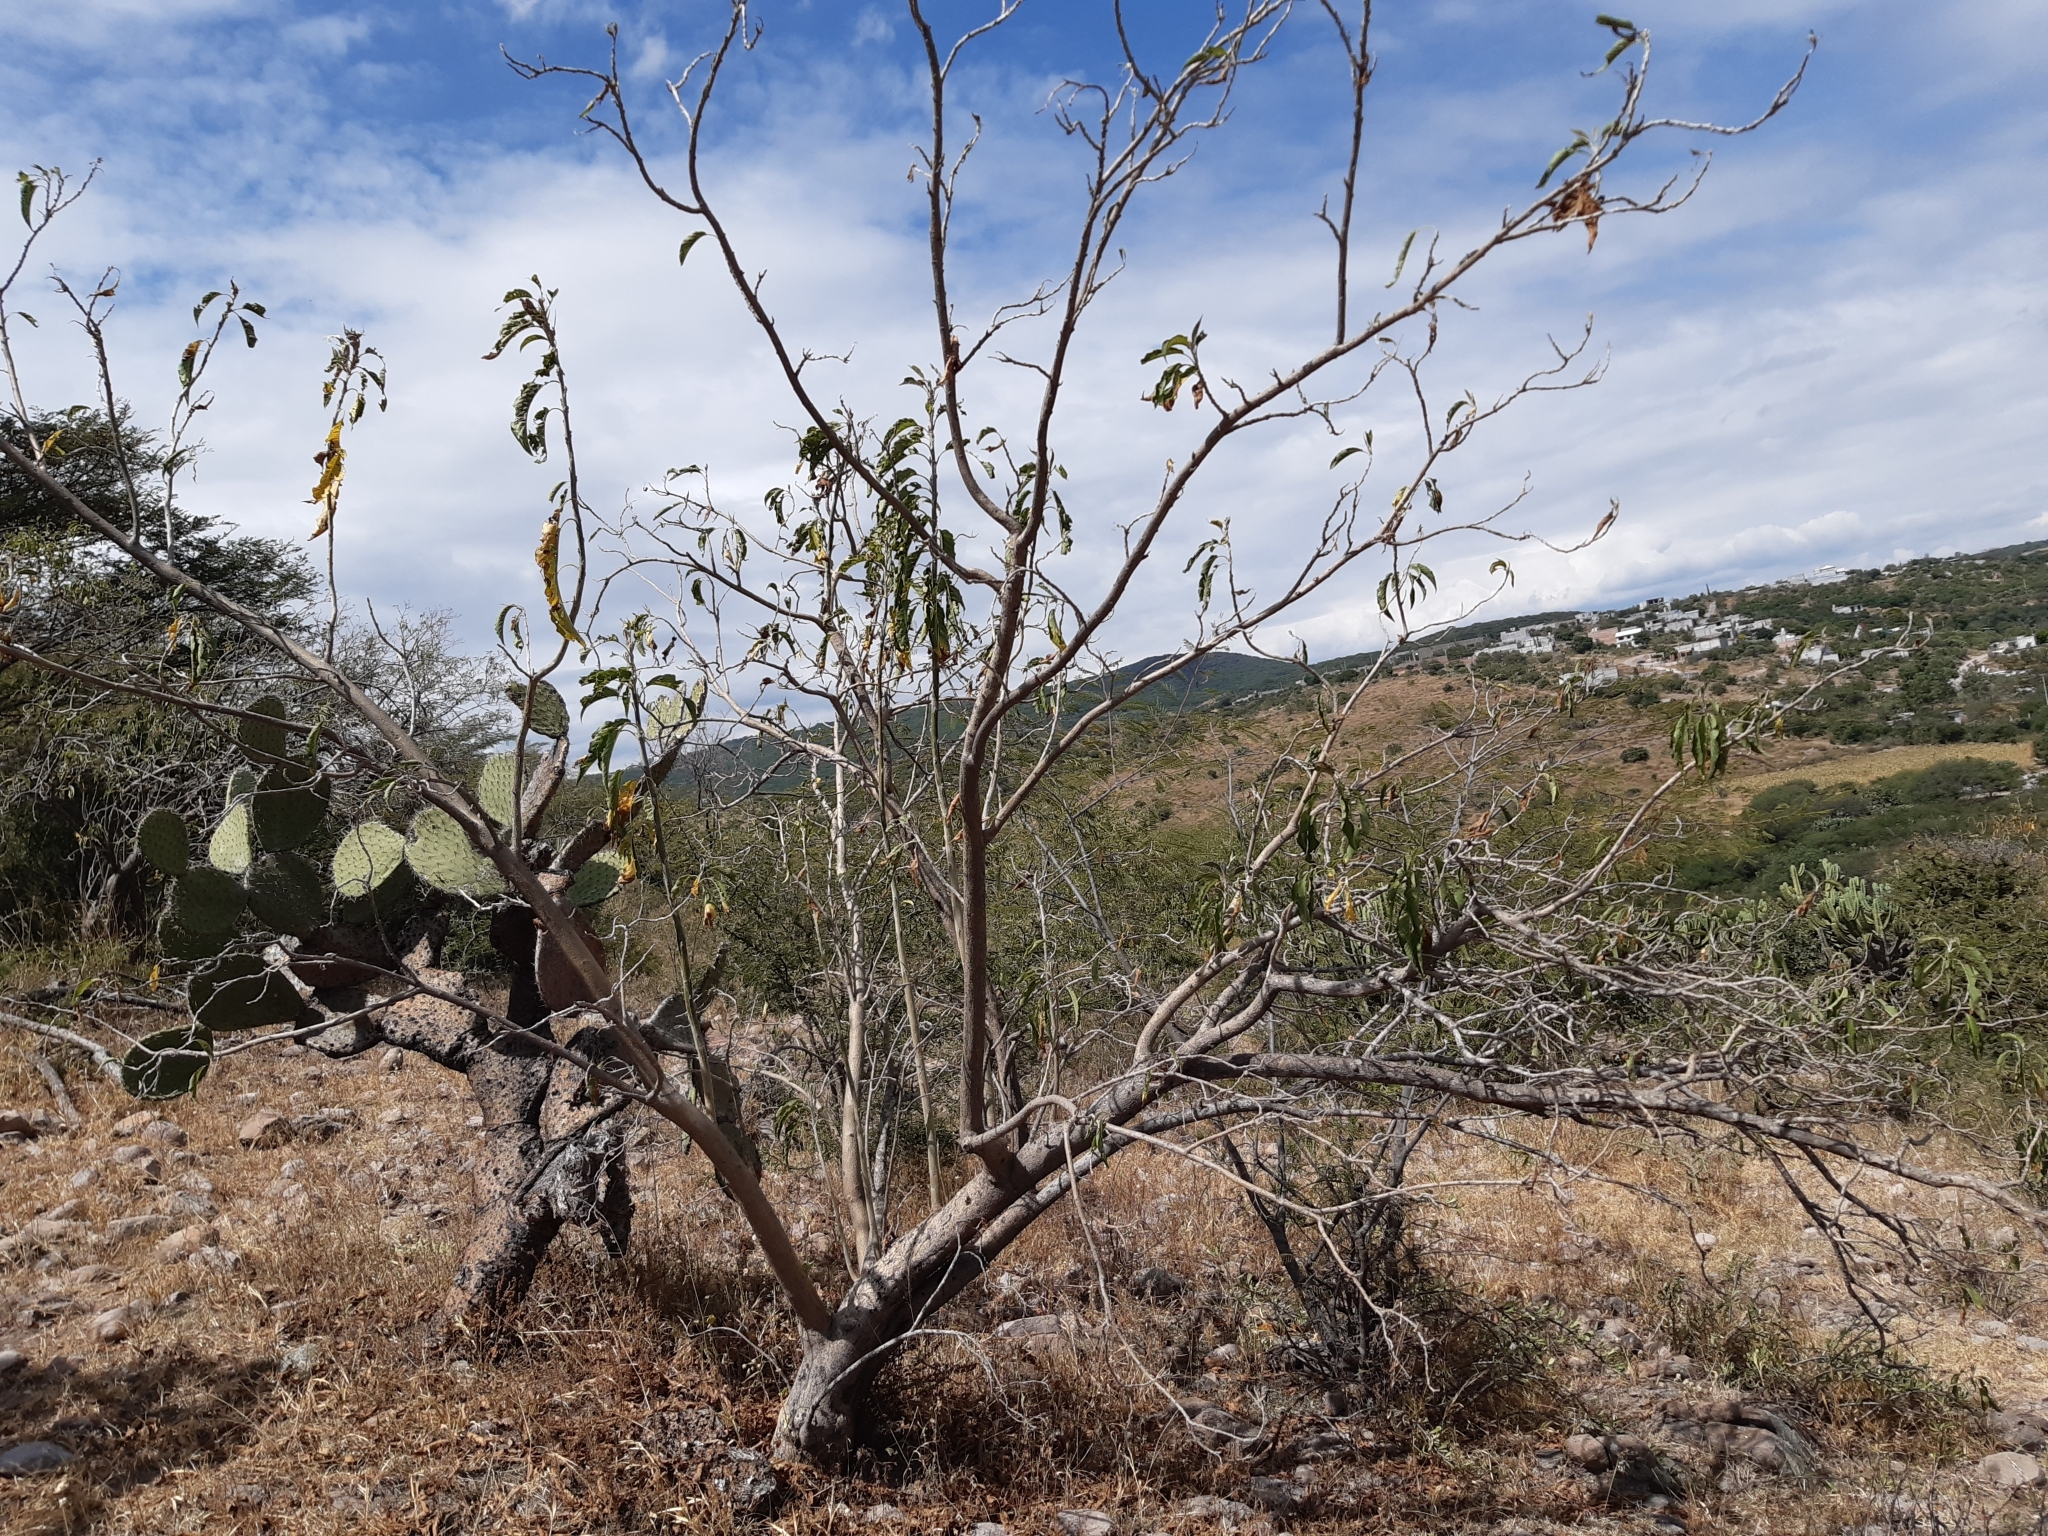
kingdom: Plantae
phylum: Tracheophyta
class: Magnoliopsida
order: Solanales
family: Convolvulaceae
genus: Ipomoea
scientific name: Ipomoea murucoides
